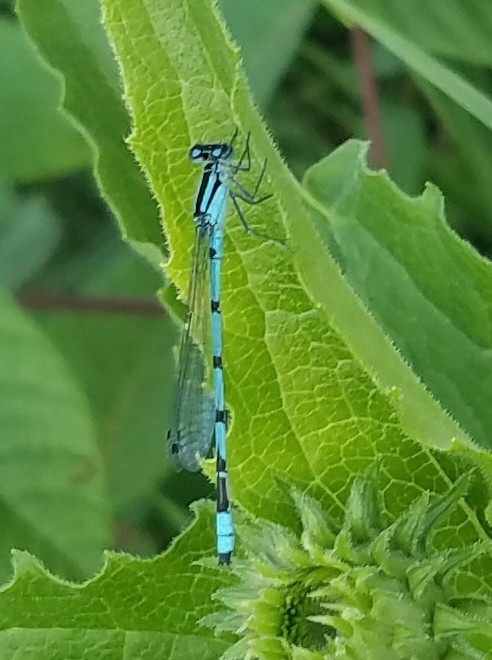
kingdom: Animalia
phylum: Arthropoda
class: Insecta
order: Odonata
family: Coenagrionidae
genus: Enallagma
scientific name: Enallagma ebrium
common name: Marsh bluet
